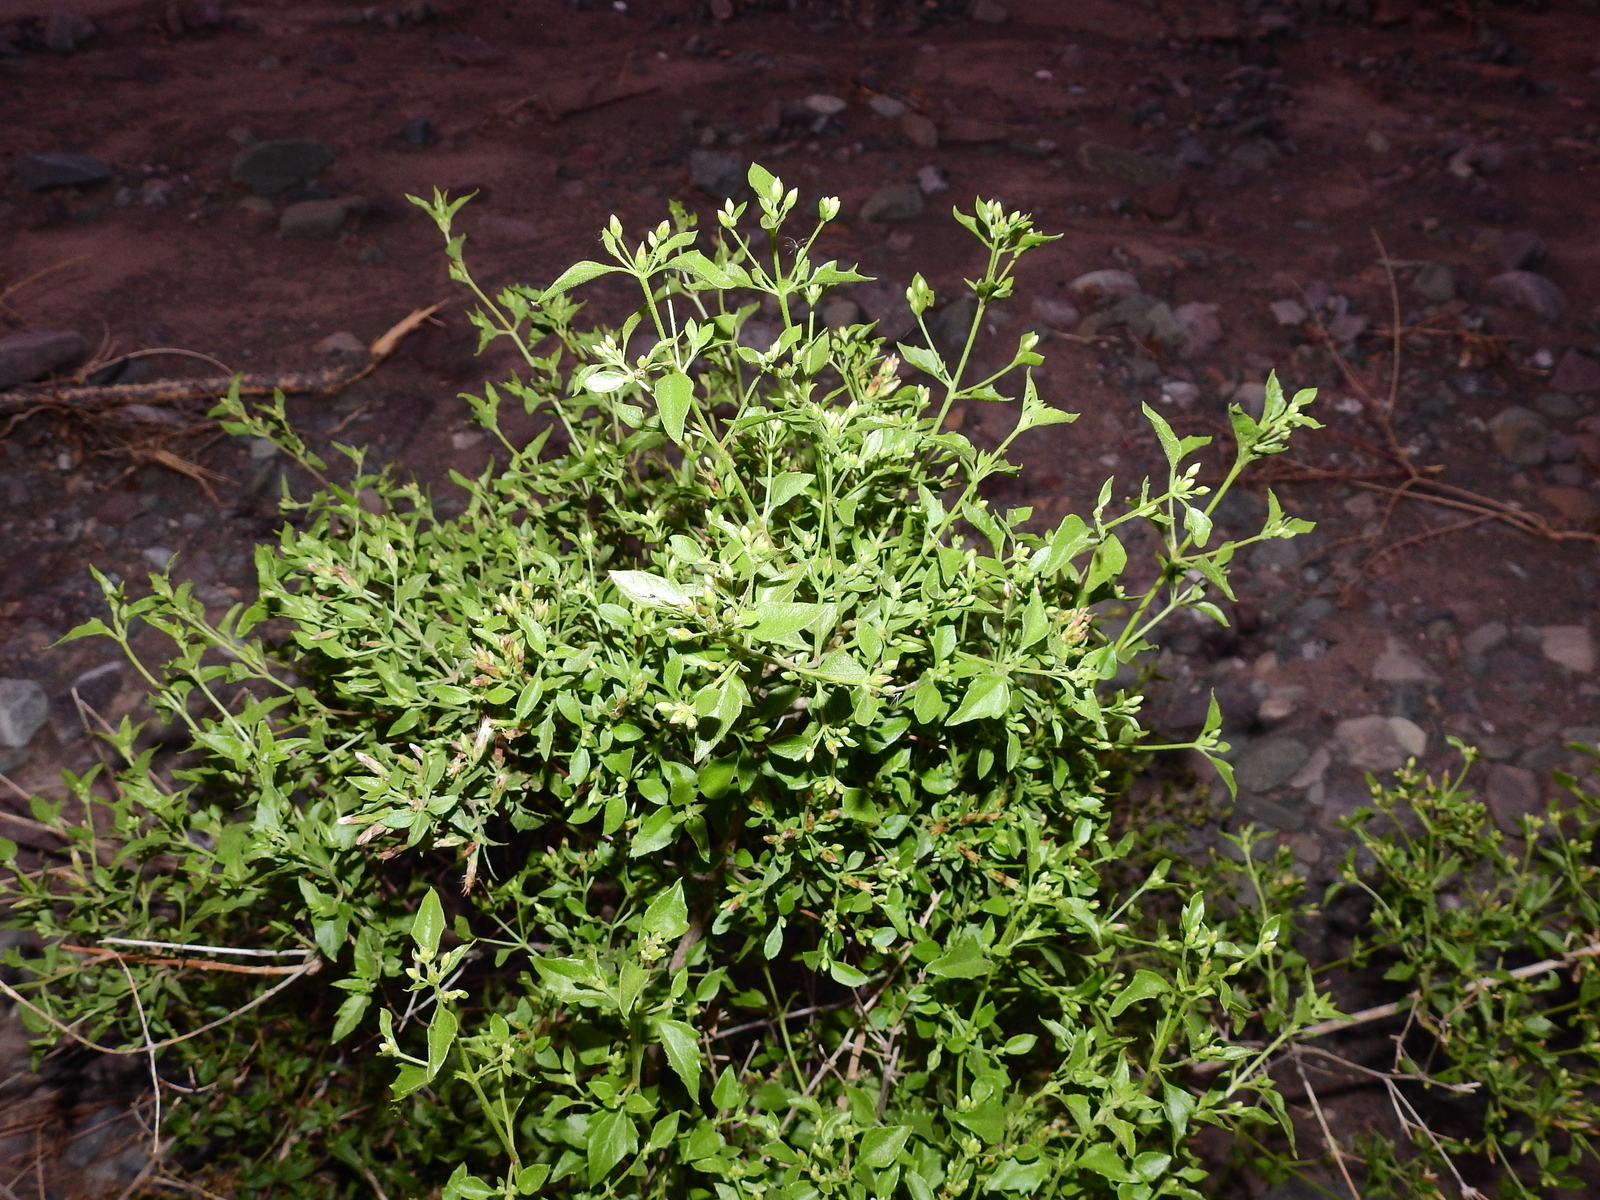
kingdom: Plantae
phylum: Tracheophyta
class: Magnoliopsida
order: Asterales
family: Asteraceae
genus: Austrobrickellia
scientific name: Austrobrickellia patens
